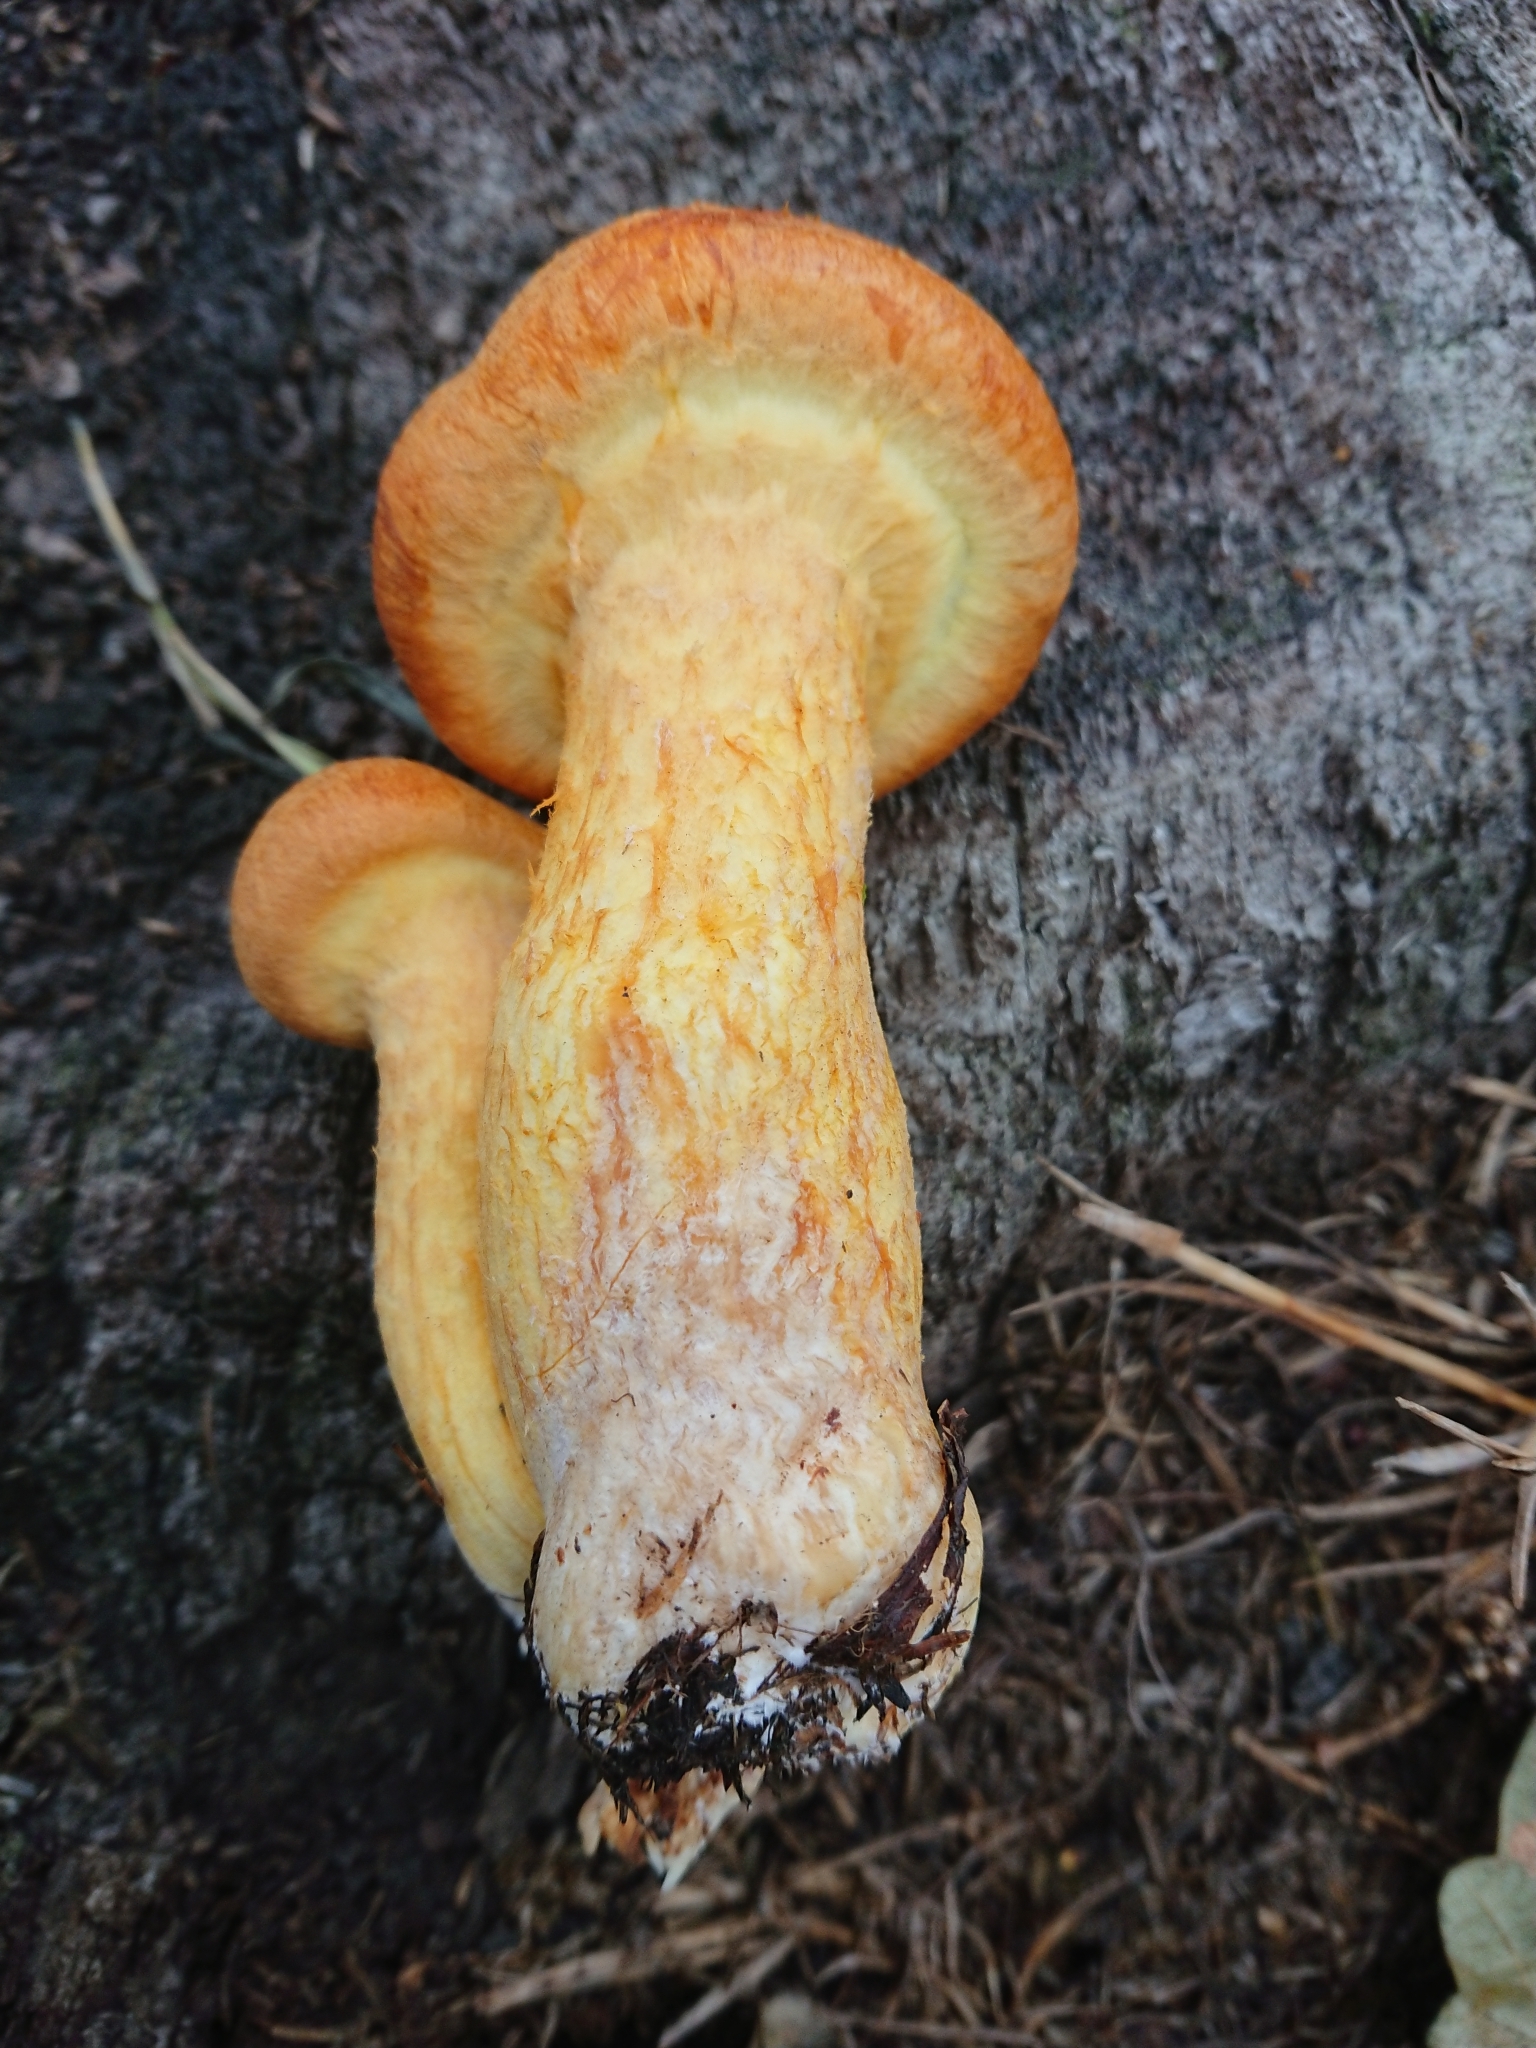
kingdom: Fungi
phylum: Basidiomycota
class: Agaricomycetes
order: Agaricales
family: Hymenogastraceae
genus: Gymnopilus
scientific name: Gymnopilus junonius
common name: Spectacular rustgill
